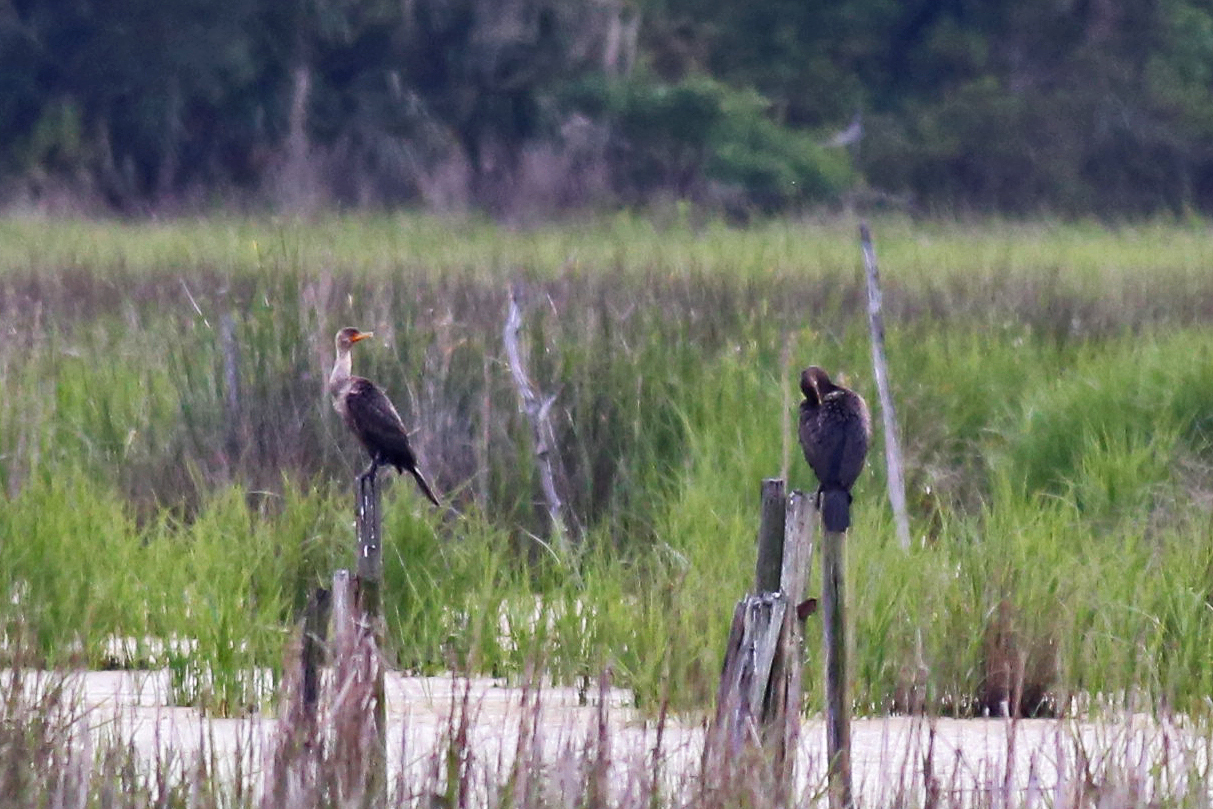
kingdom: Animalia
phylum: Chordata
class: Aves
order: Suliformes
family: Phalacrocoracidae
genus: Phalacrocorax
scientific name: Phalacrocorax auritus
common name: Double-crested cormorant
